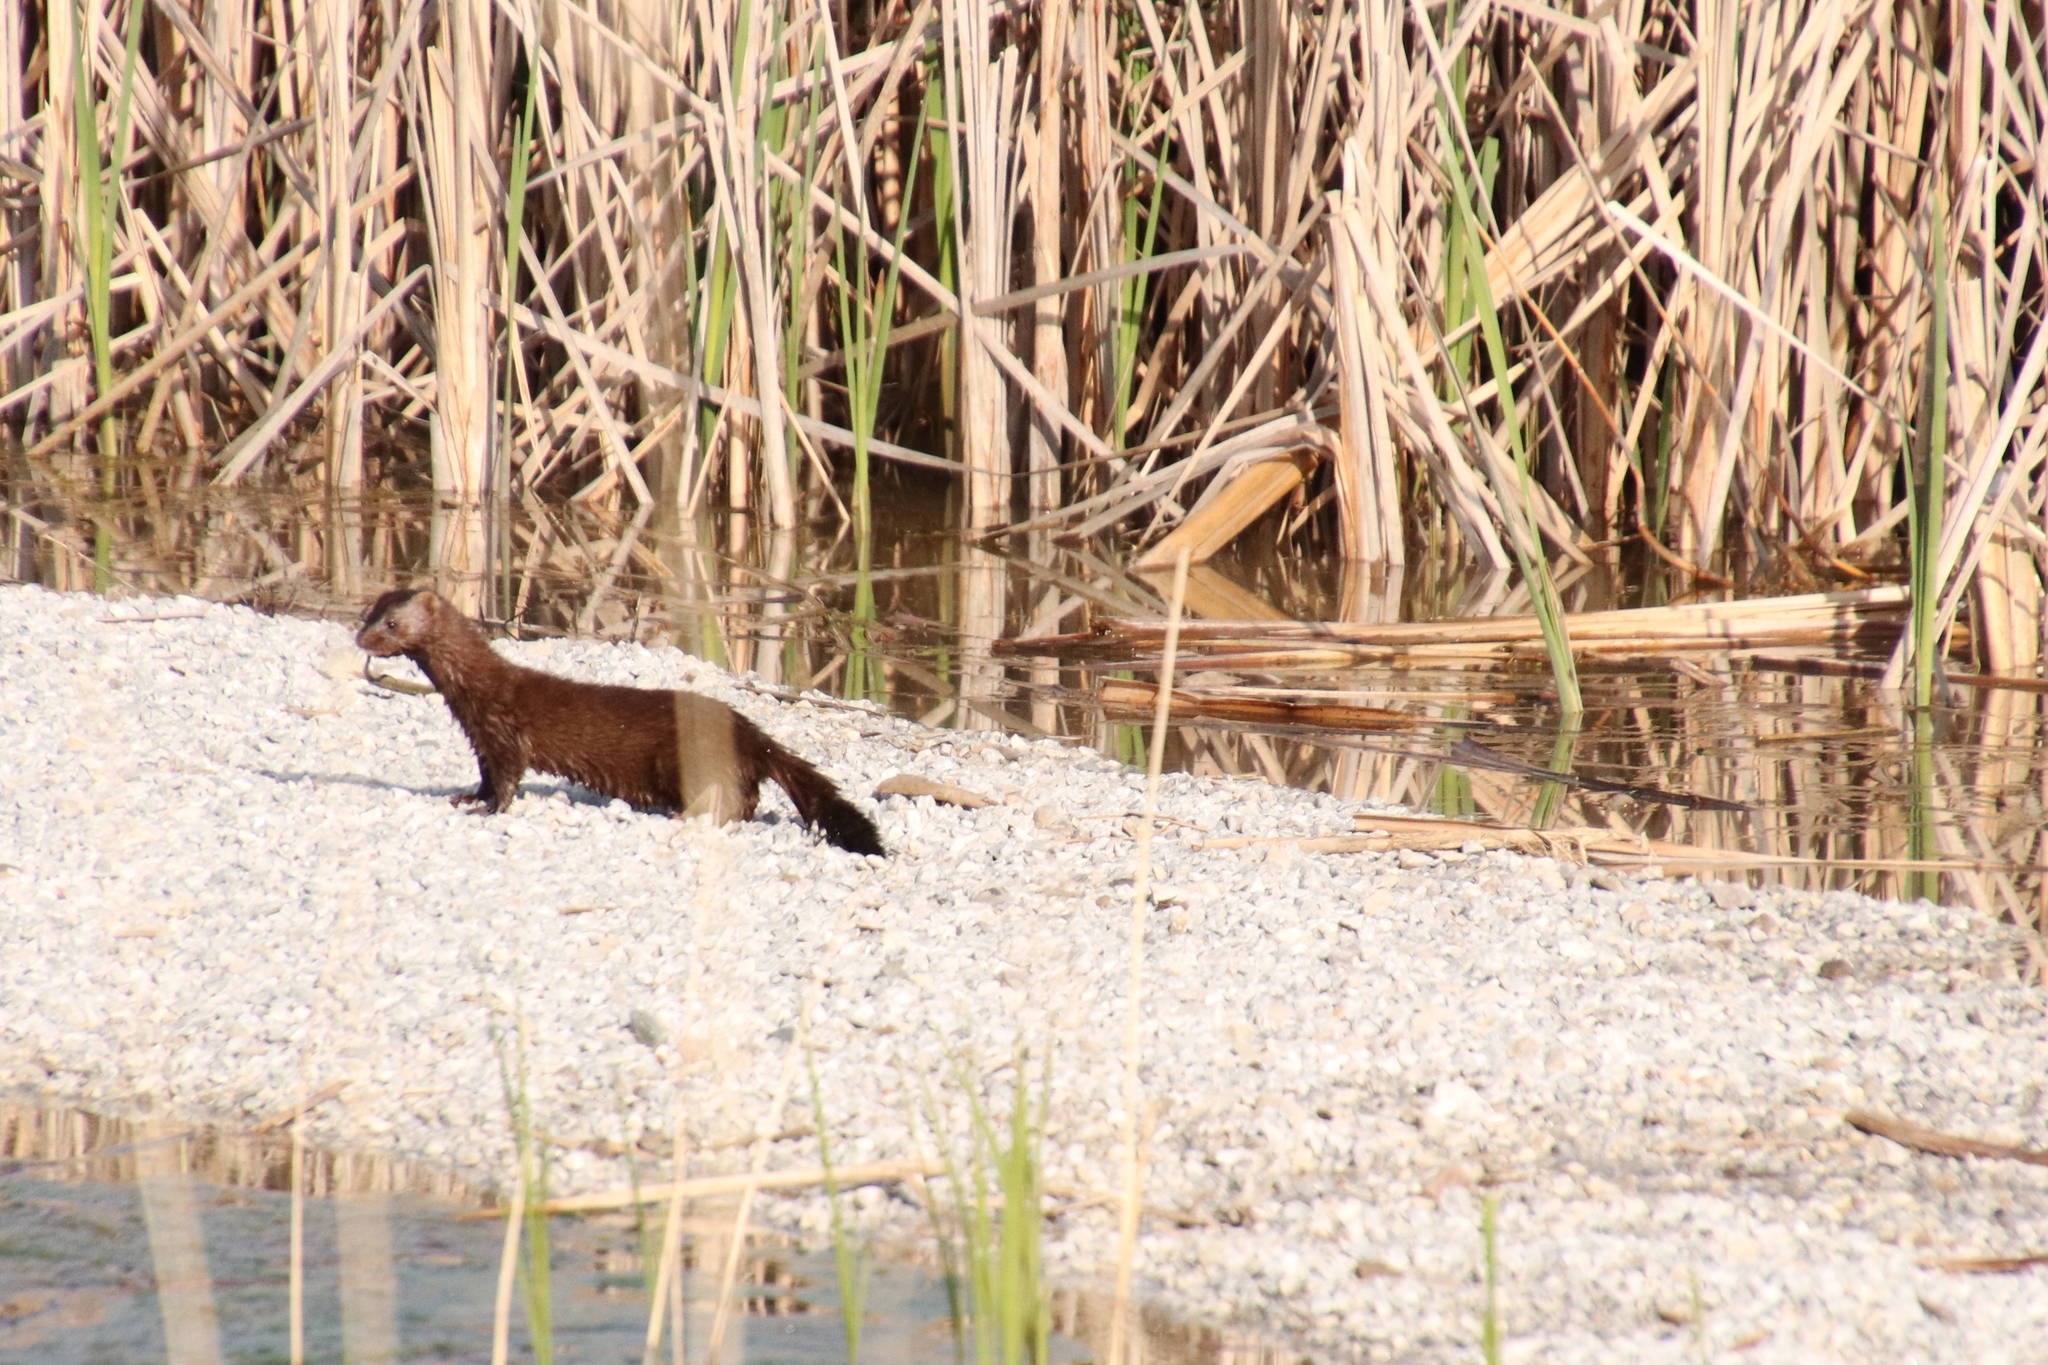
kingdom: Animalia
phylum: Chordata
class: Mammalia
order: Carnivora
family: Mustelidae
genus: Mustela
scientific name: Mustela
